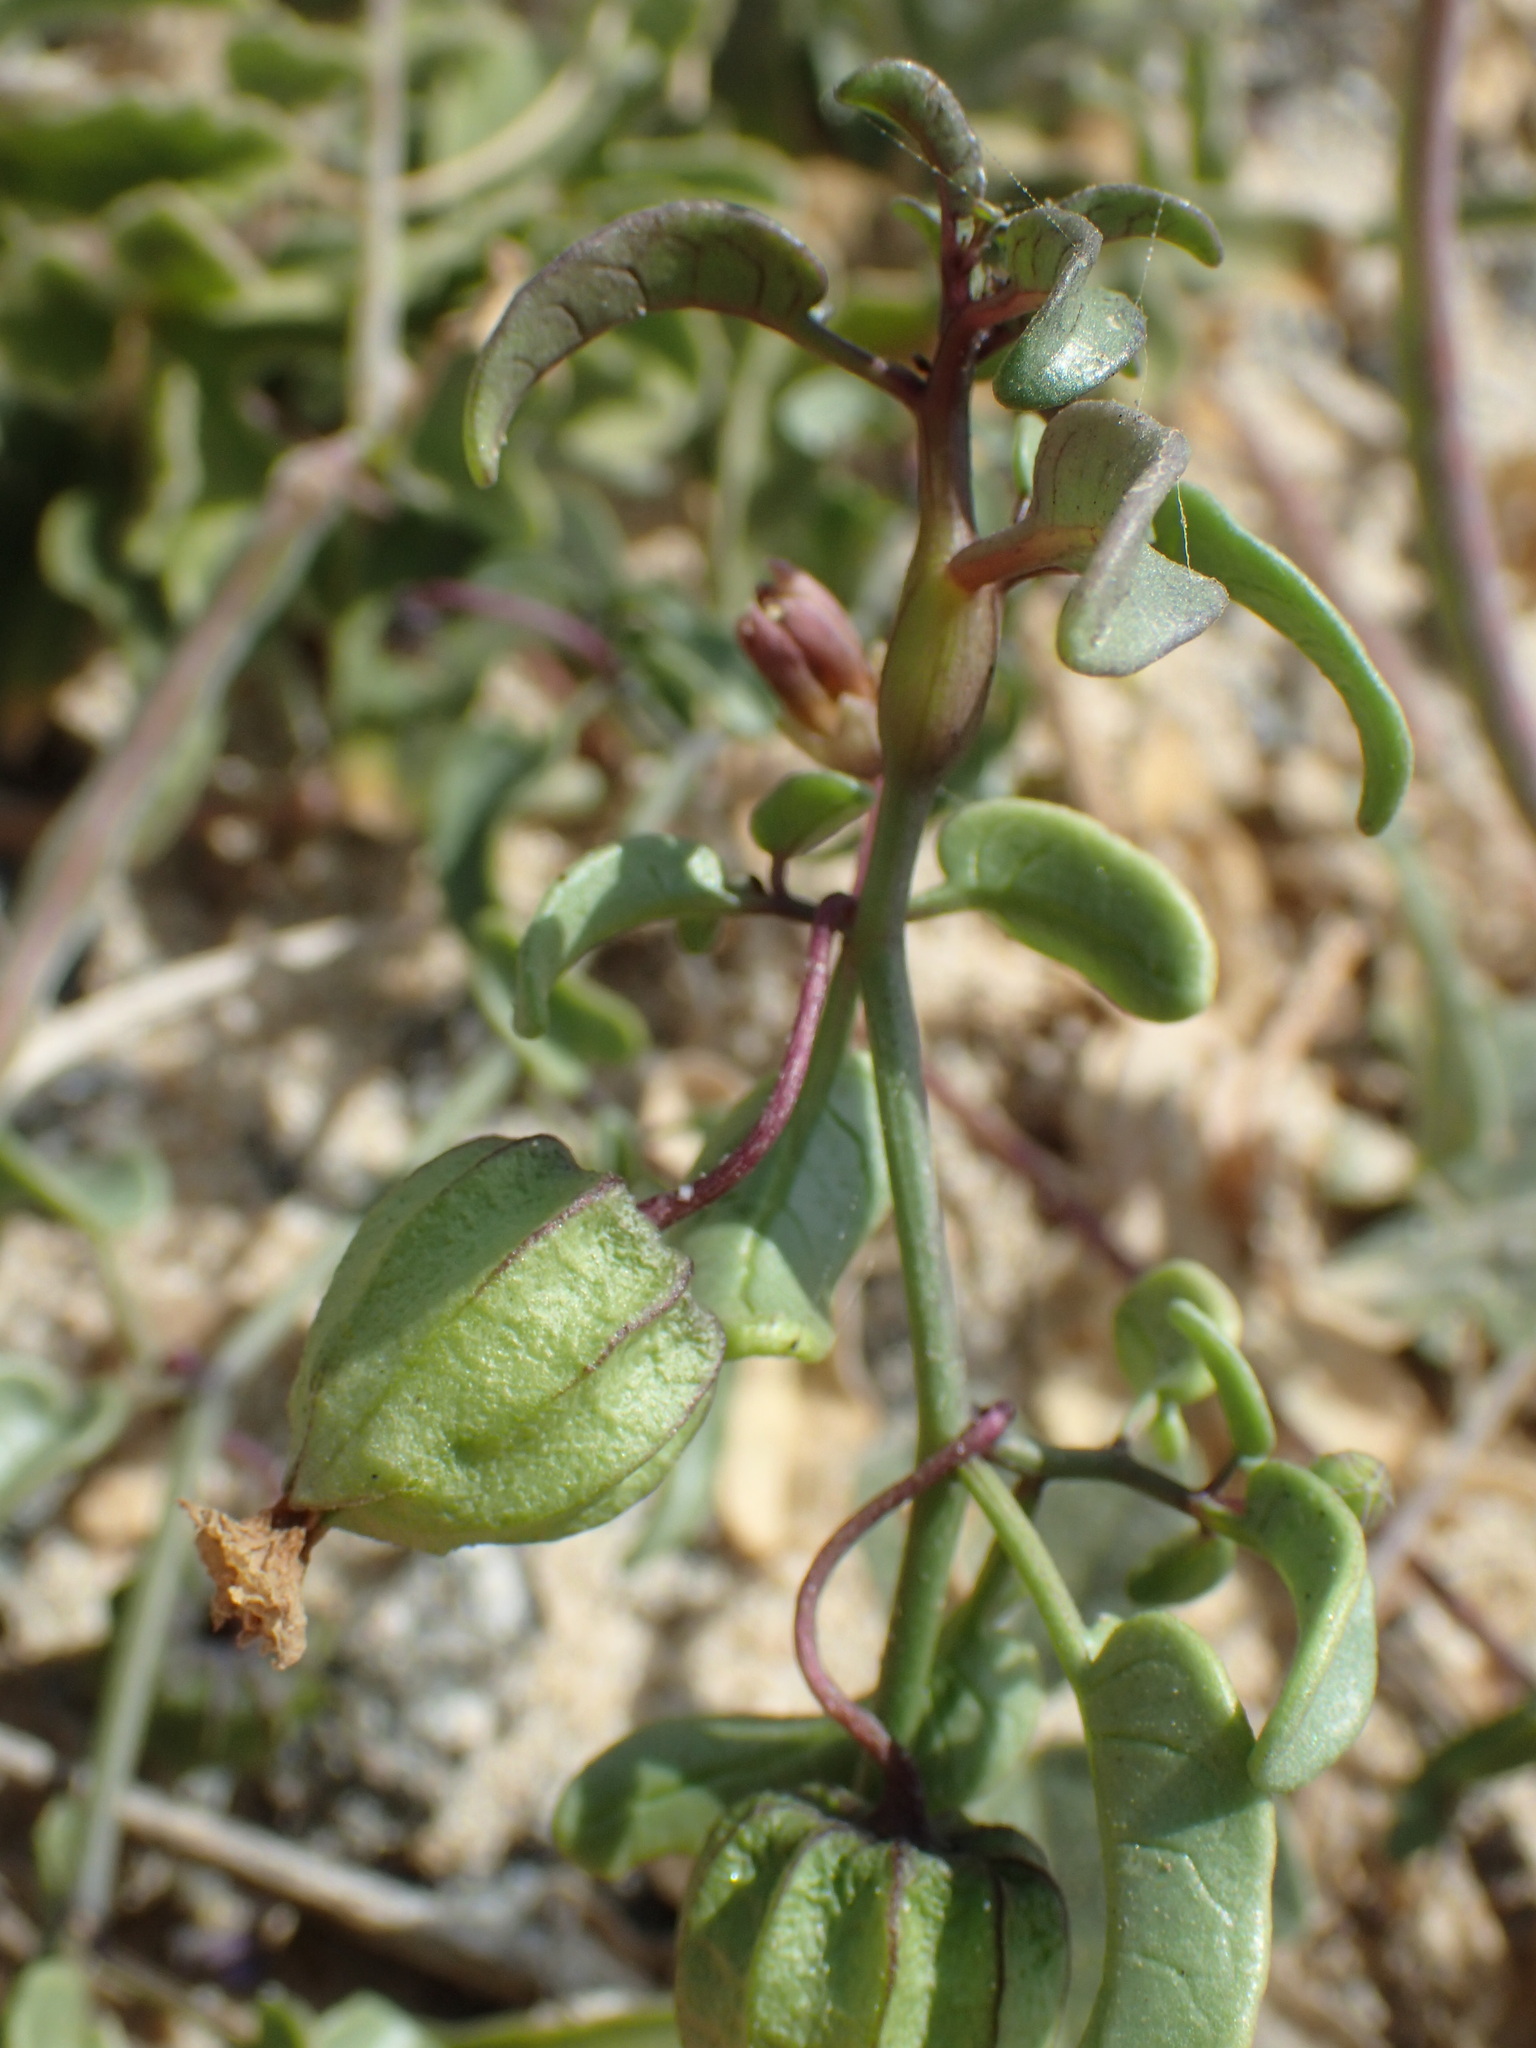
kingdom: Plantae
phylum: Tracheophyta
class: Magnoliopsida
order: Solanales
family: Solanaceae
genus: Physalis
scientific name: Physalis glabra
